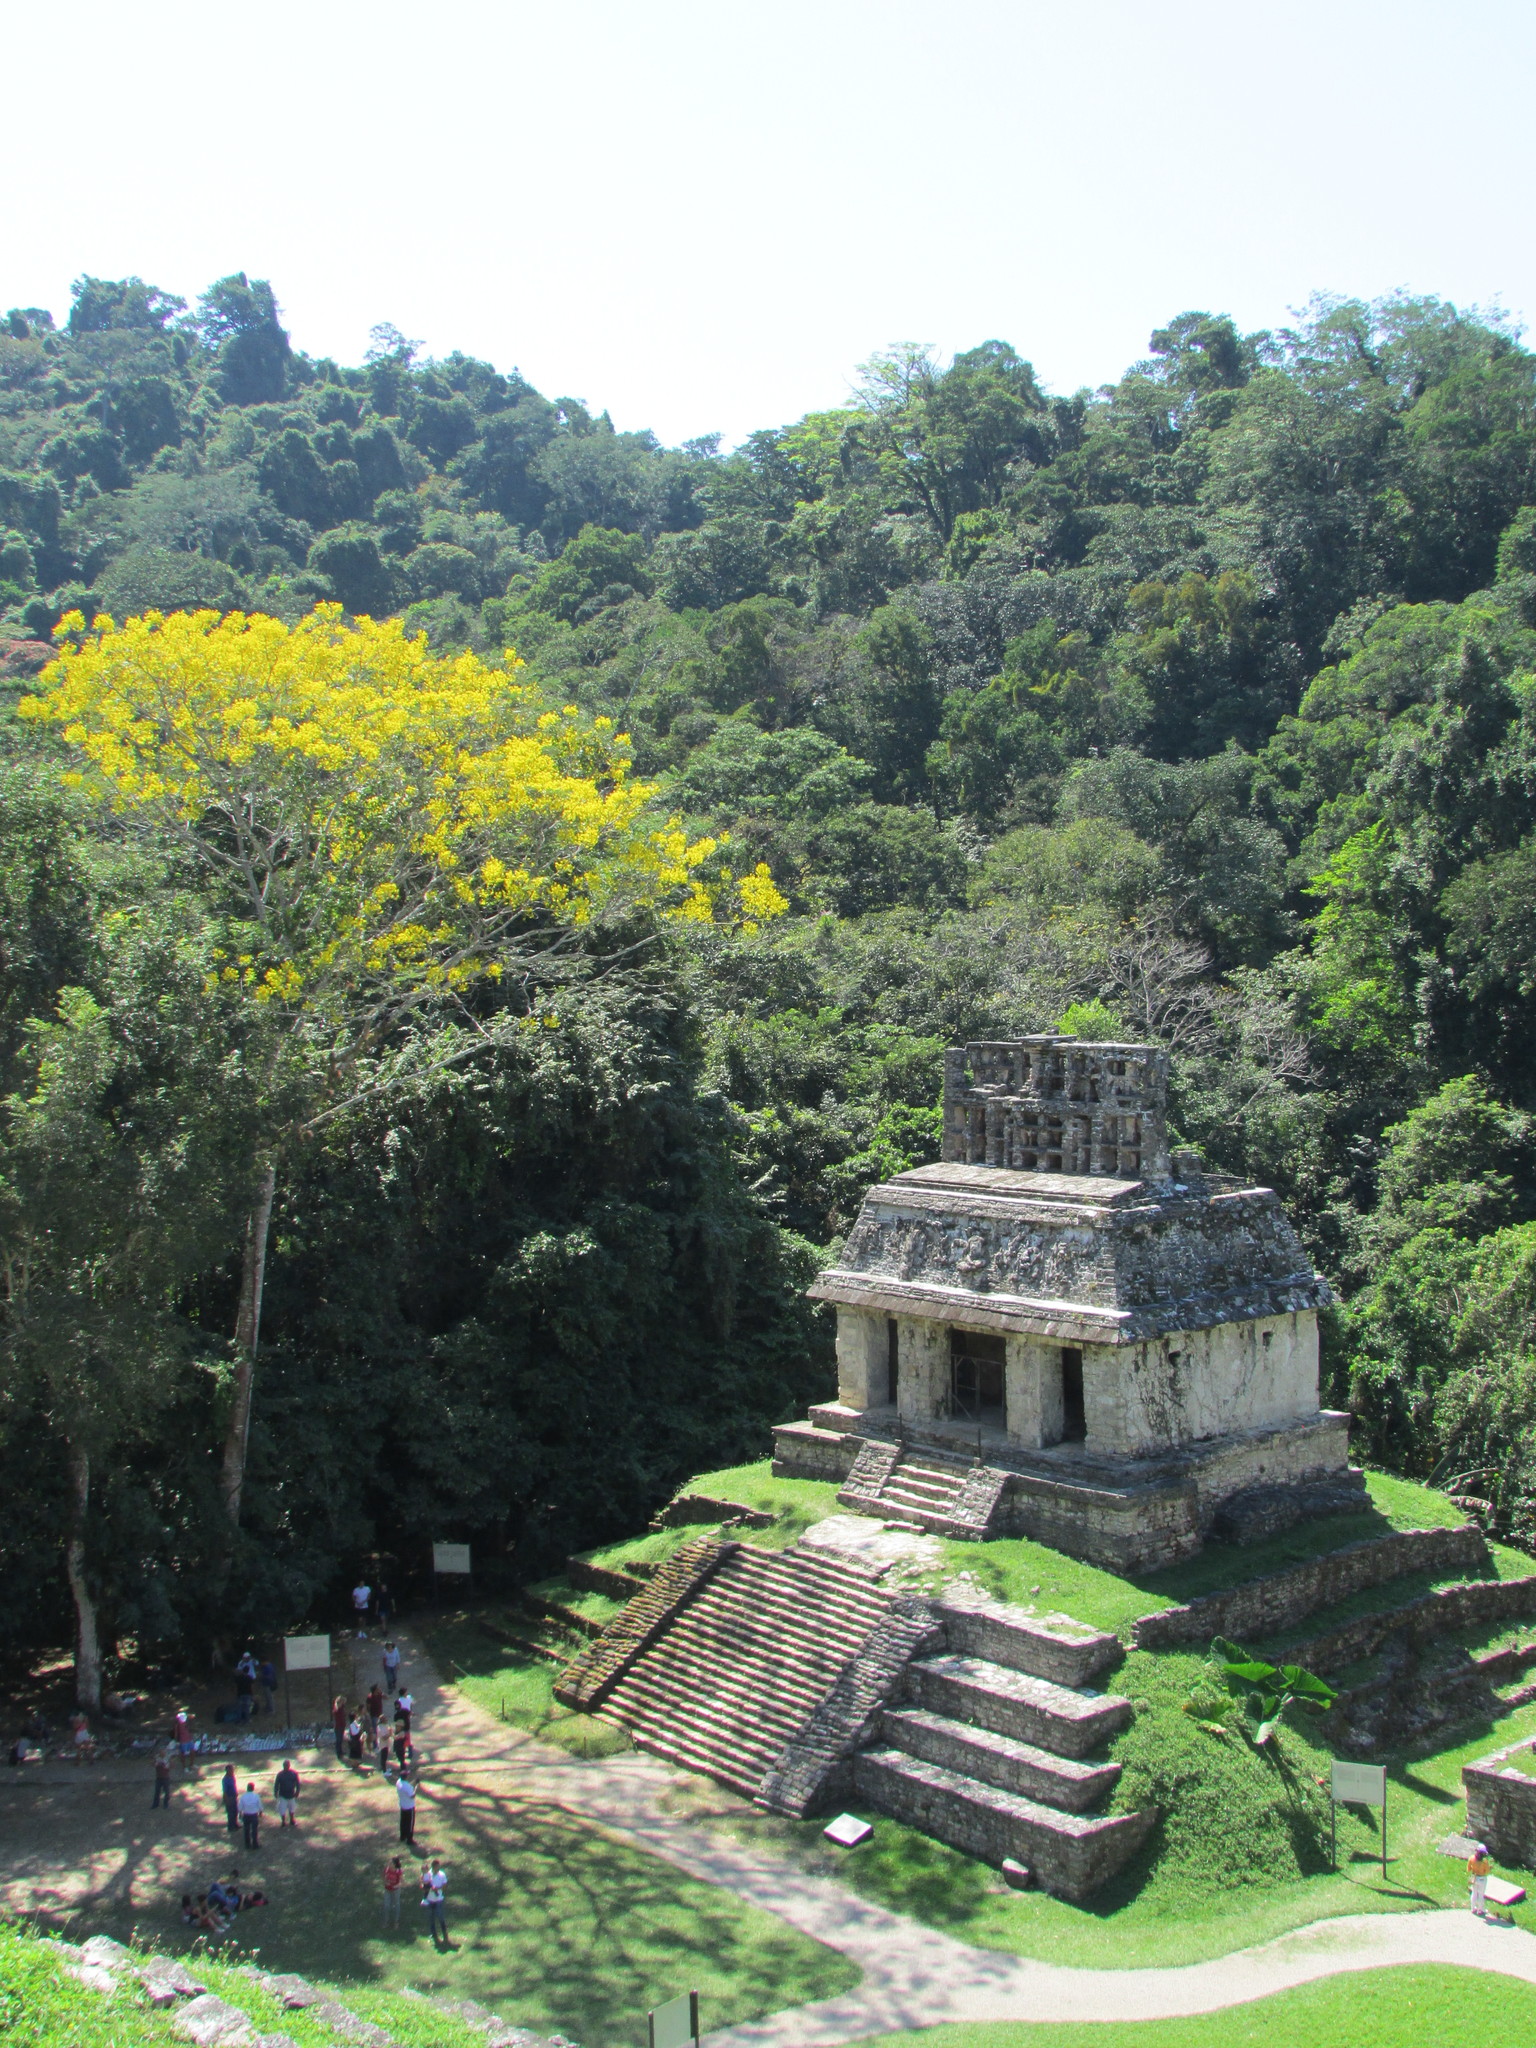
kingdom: Plantae
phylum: Tracheophyta
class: Magnoliopsida
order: Fabales
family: Fabaceae
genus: Schizolobium
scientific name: Schizolobium parahyba
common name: Brazilian firetree
